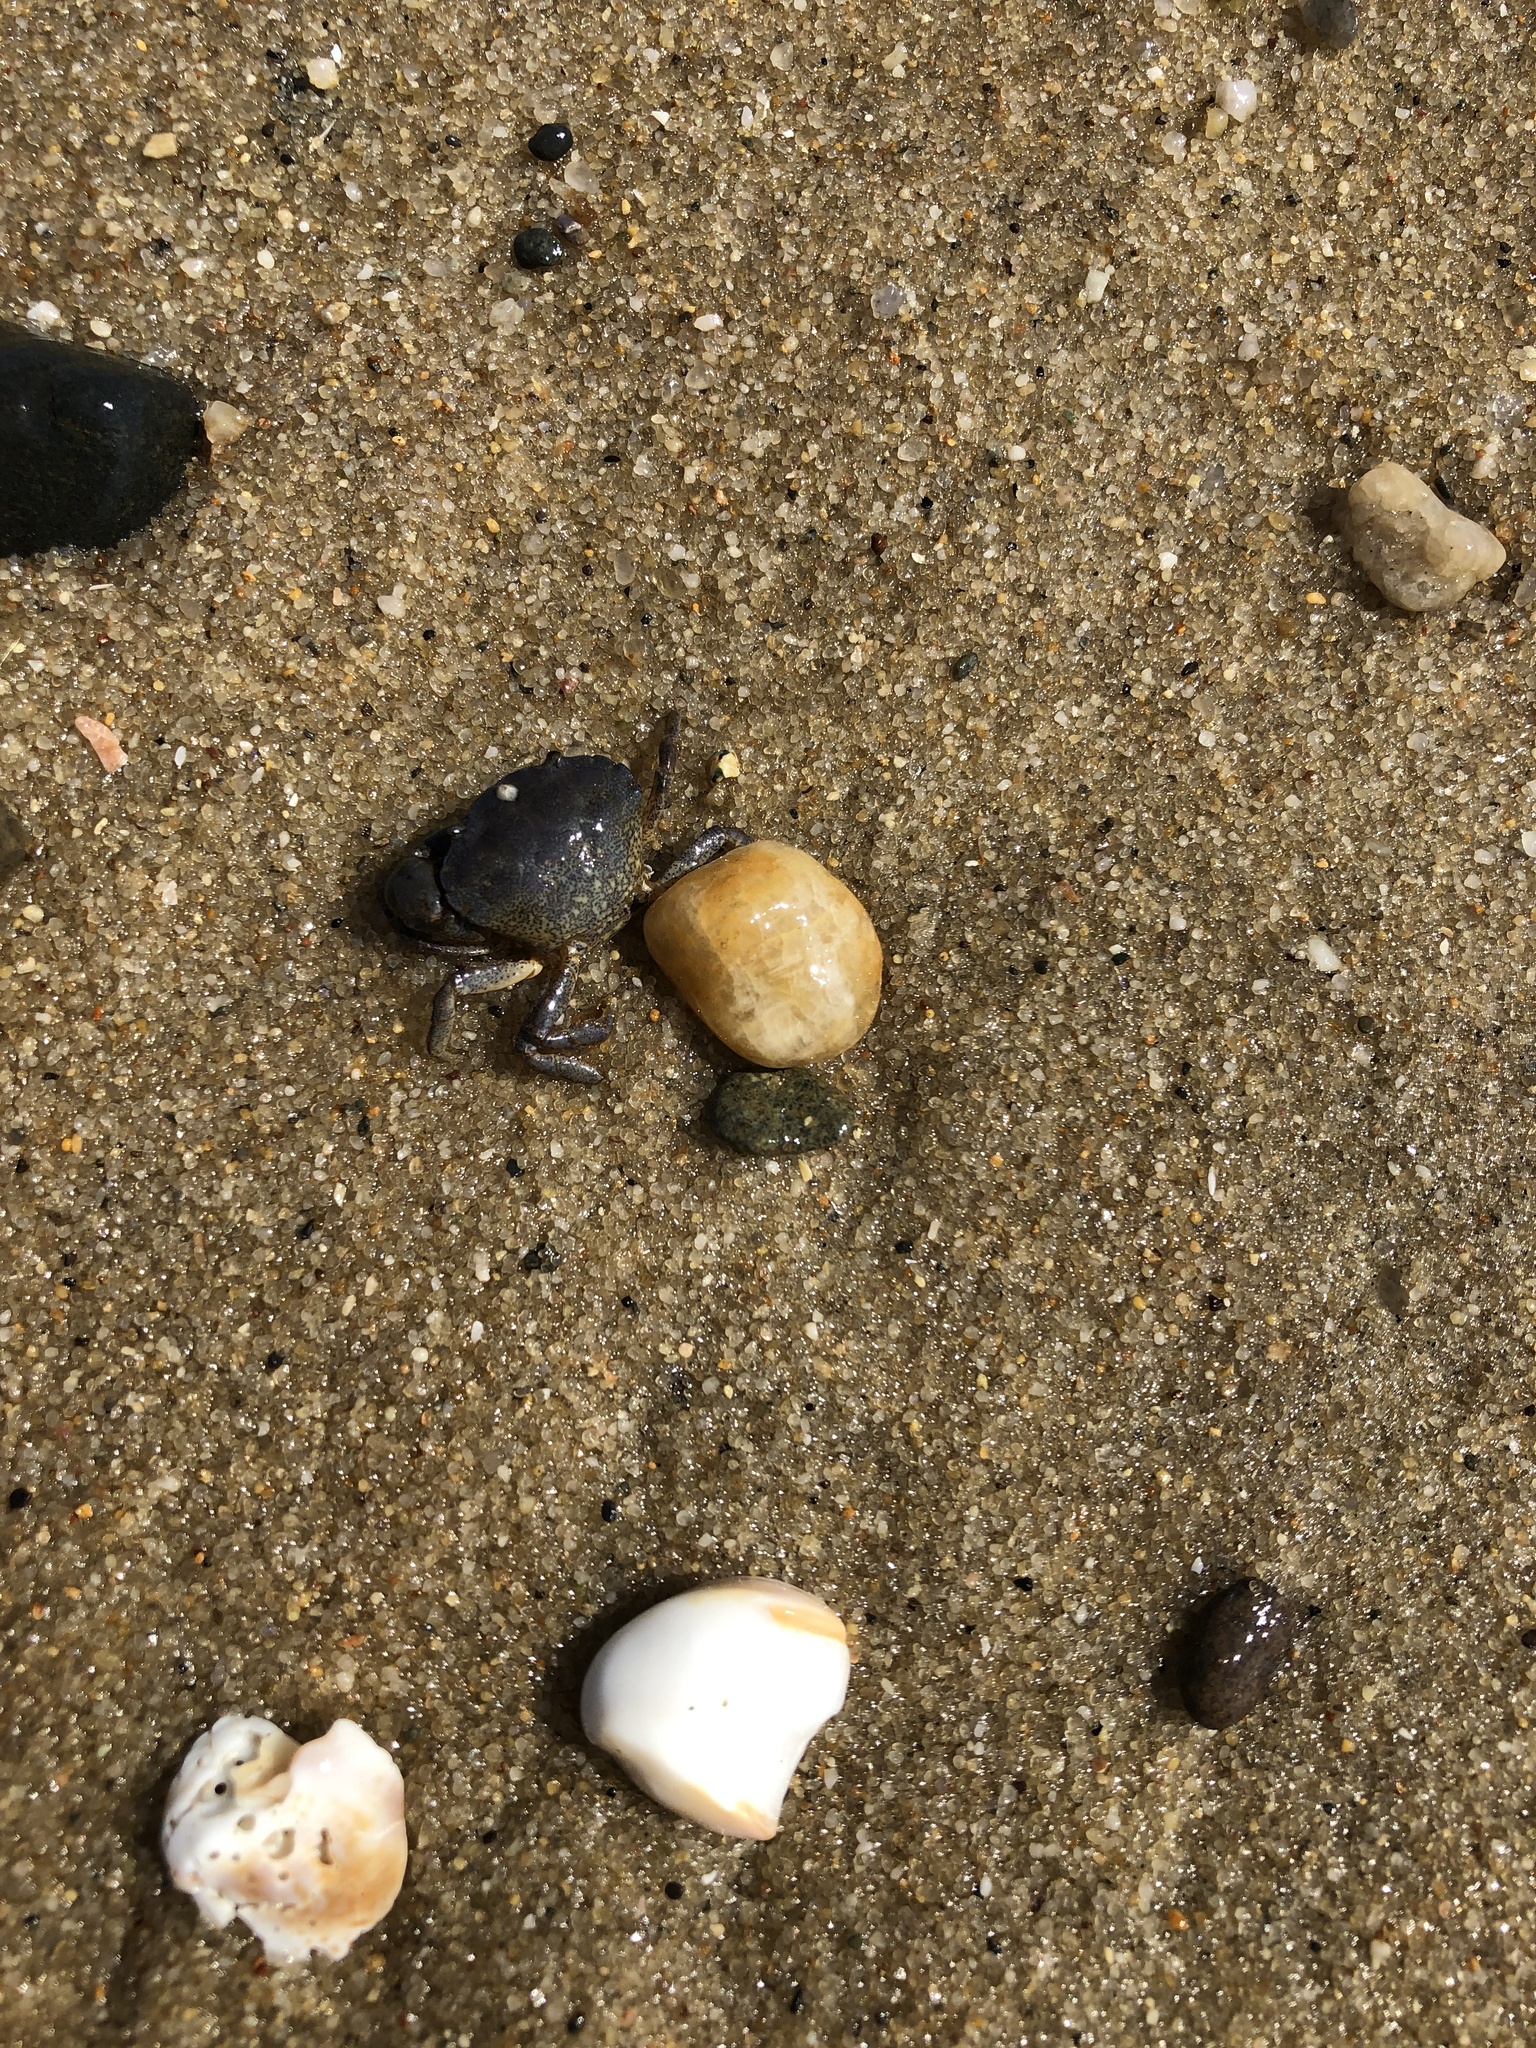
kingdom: Animalia
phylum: Arthropoda
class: Malacostraca
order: Decapoda
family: Carcinidae
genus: Carcinus
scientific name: Carcinus maenas
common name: European green crab
